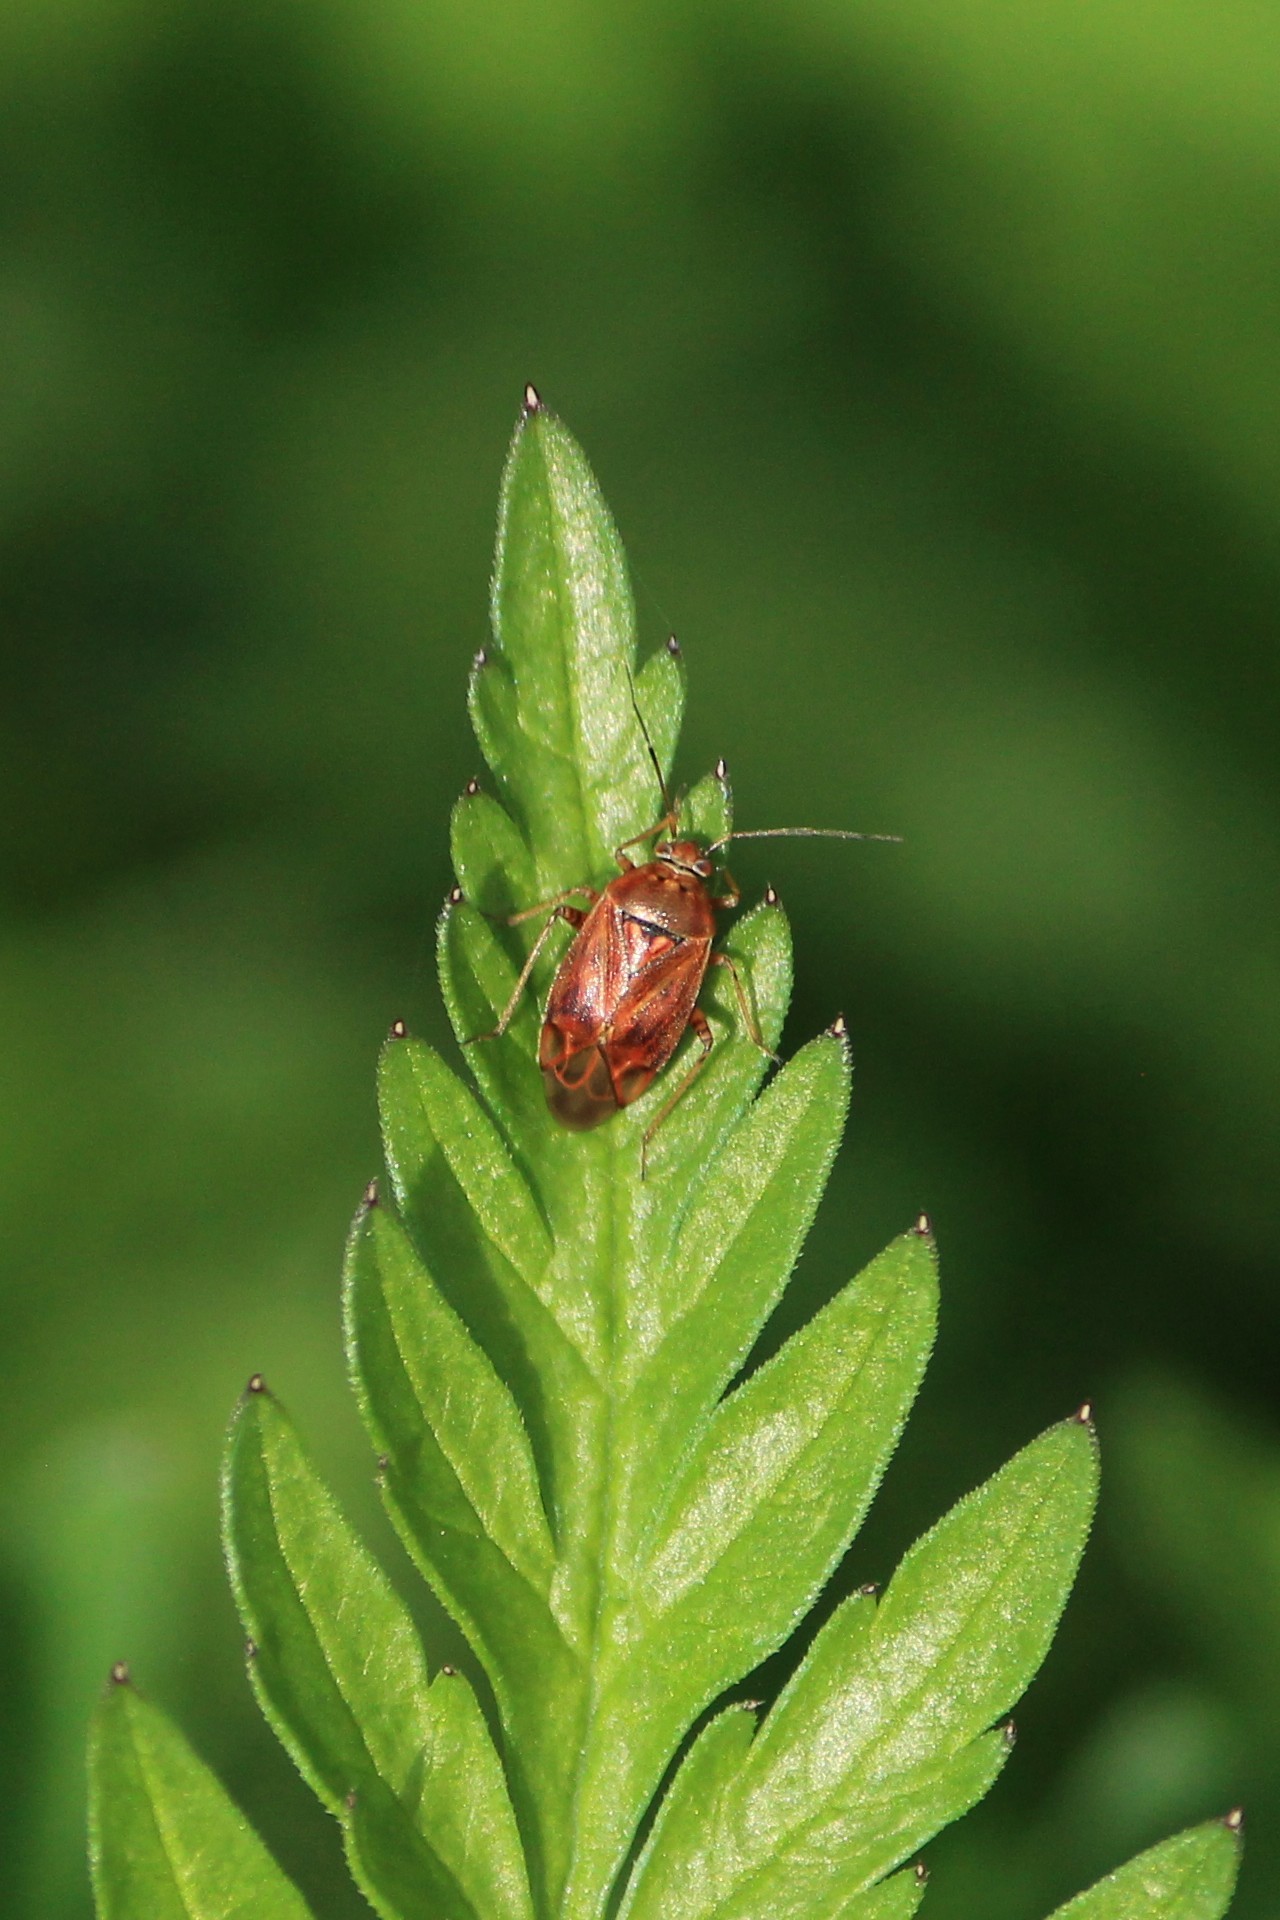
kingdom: Animalia
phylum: Arthropoda
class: Insecta
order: Hemiptera
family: Miridae
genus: Lygus
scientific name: Lygus wagneri
